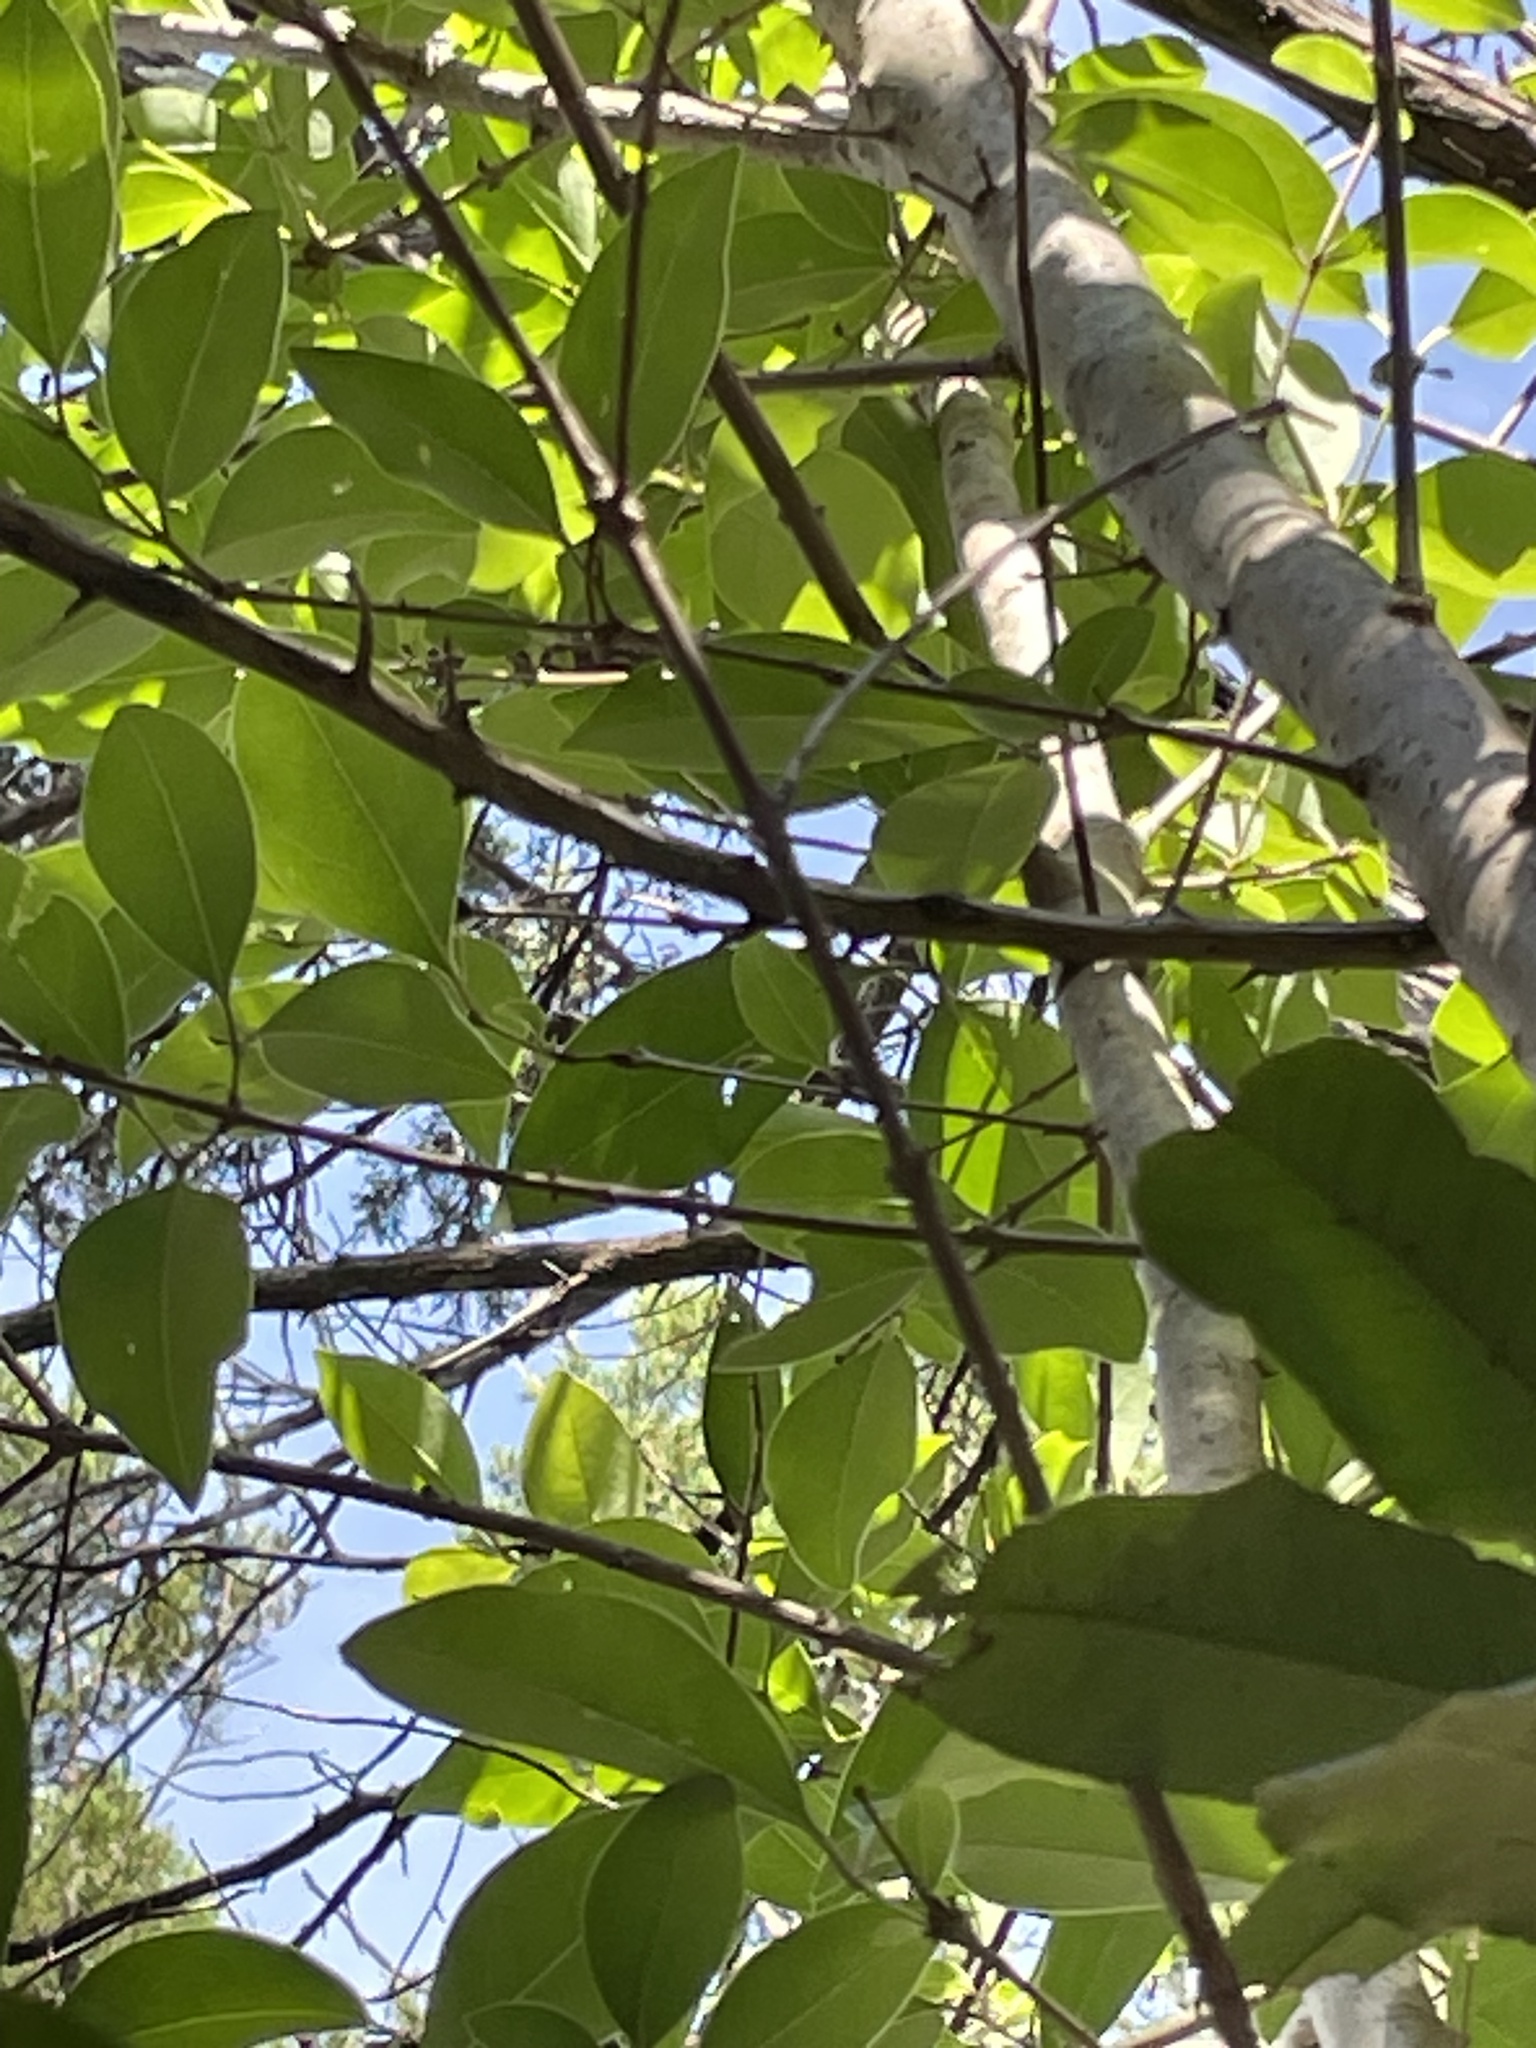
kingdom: Plantae
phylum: Tracheophyta
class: Magnoliopsida
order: Lamiales
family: Oleaceae
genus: Ligustrum
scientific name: Ligustrum lucidum
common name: Glossy privet
